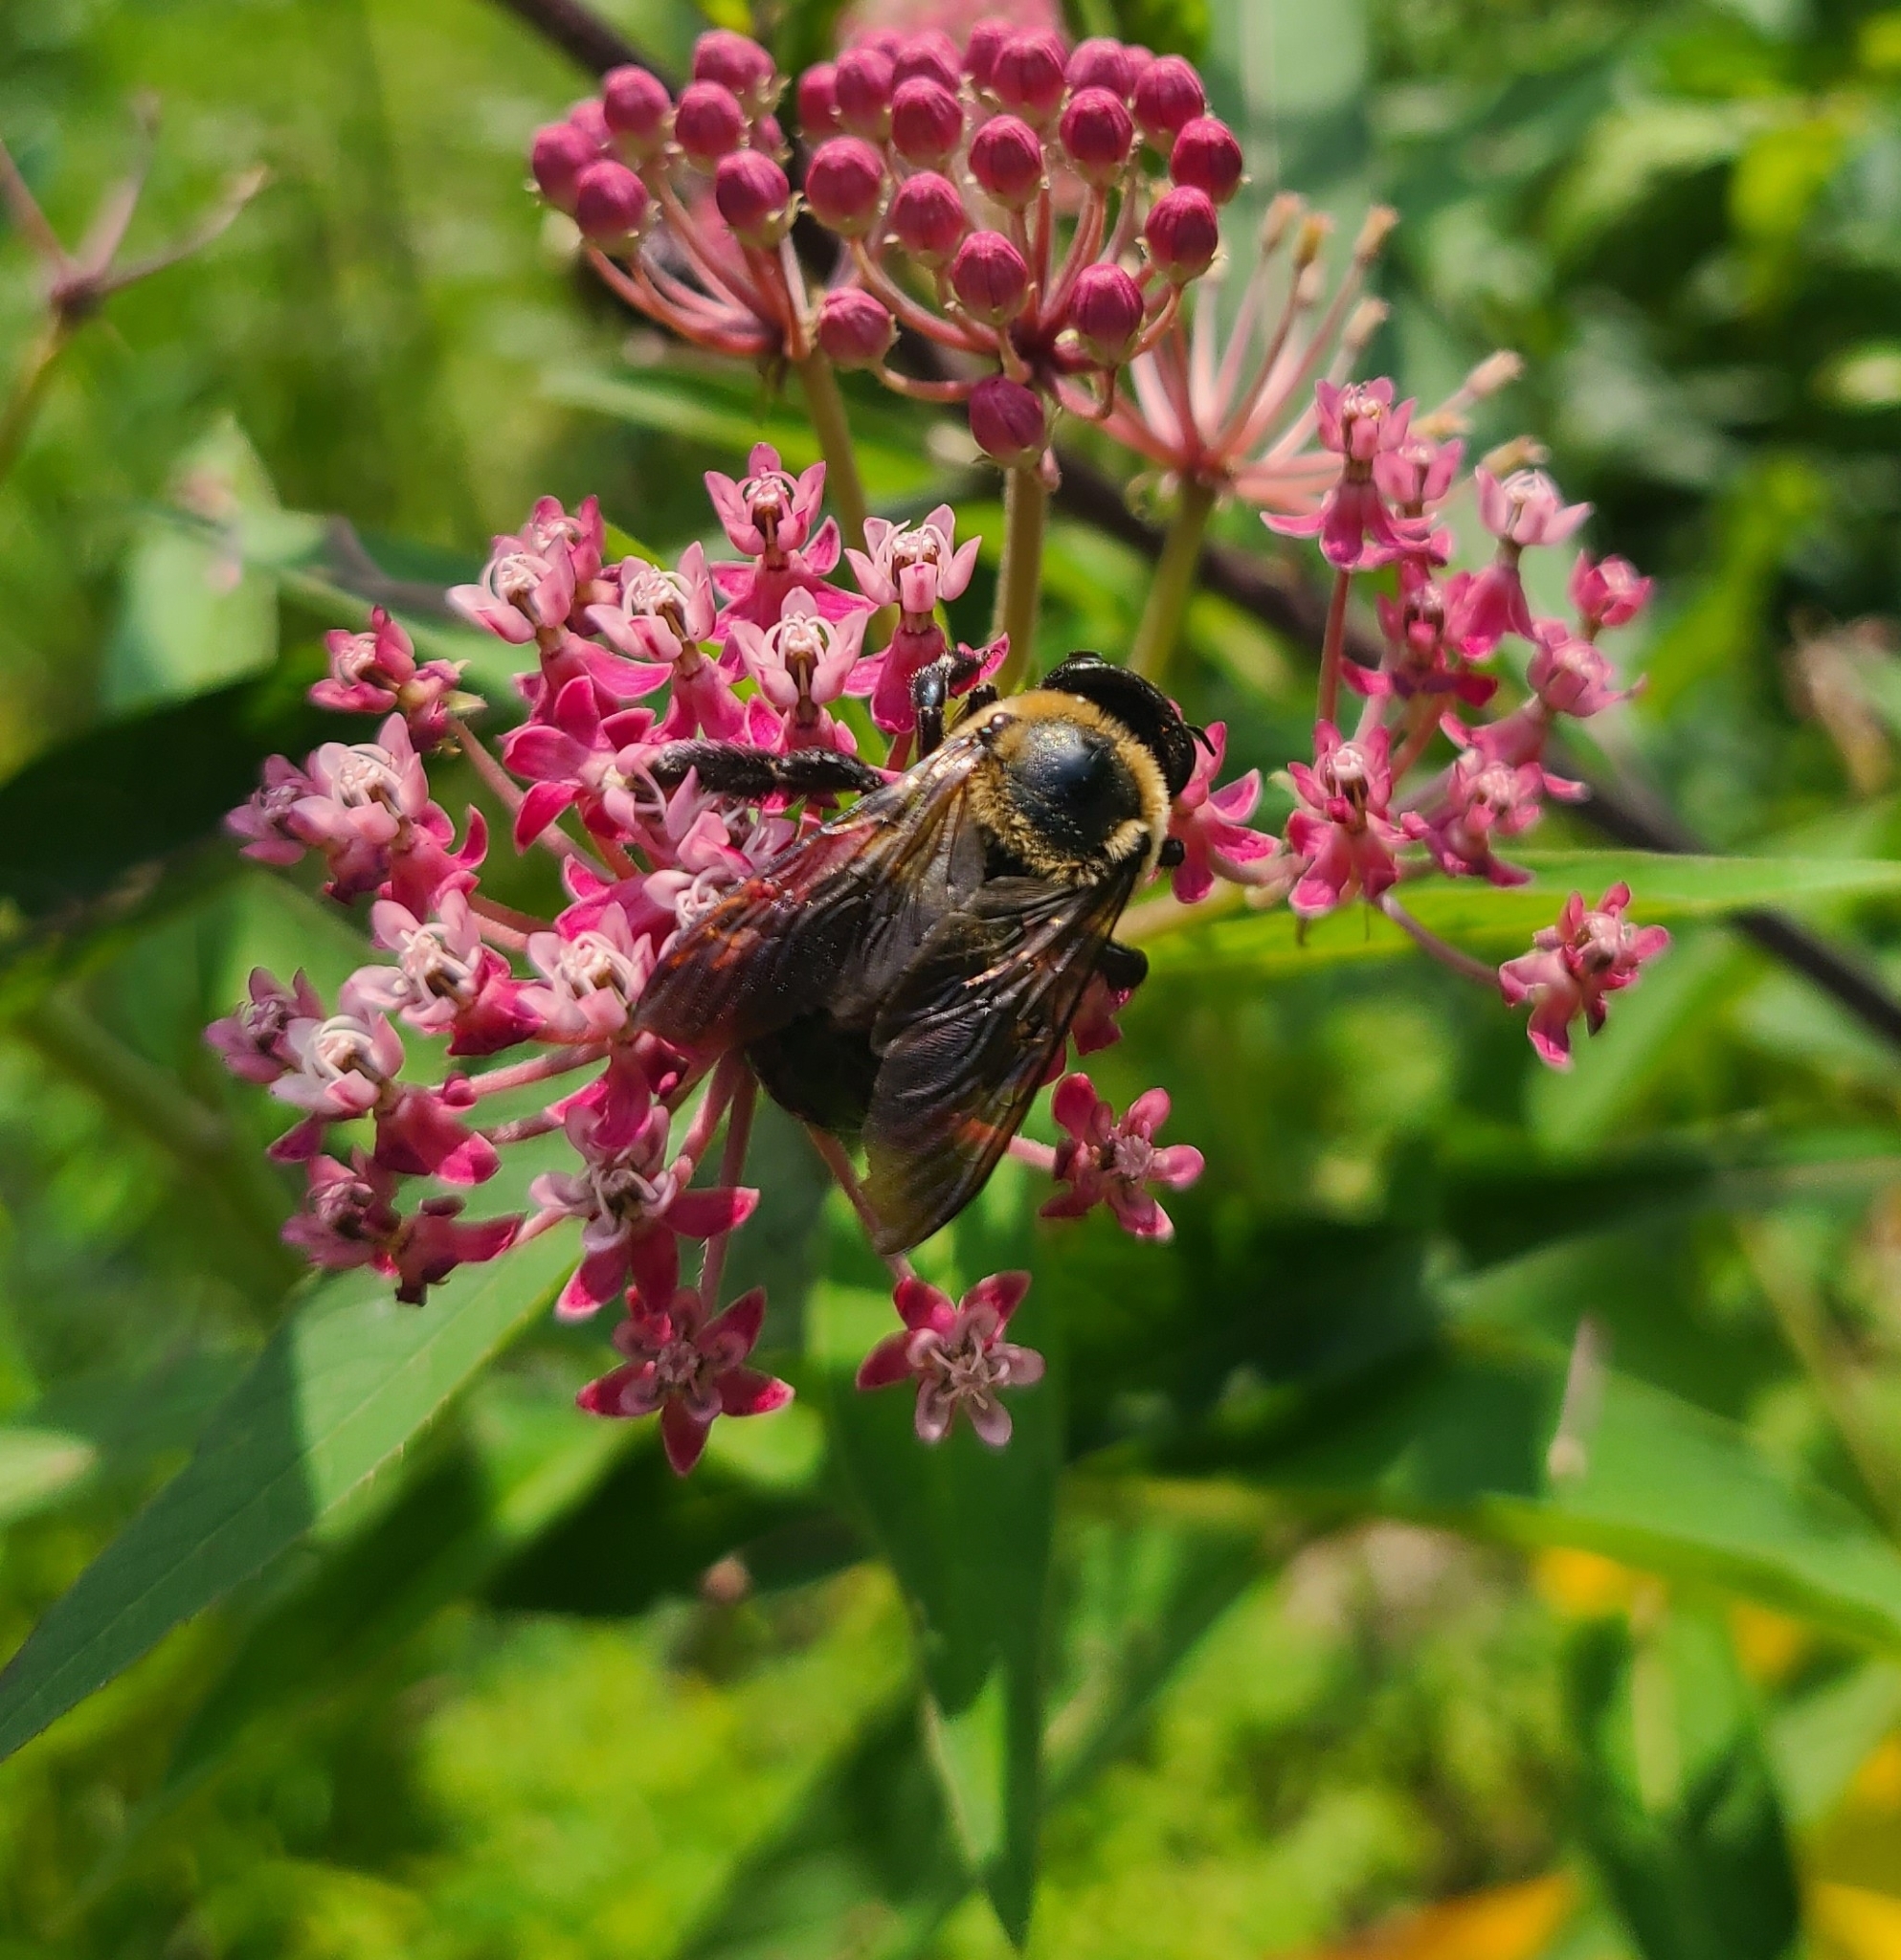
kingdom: Animalia
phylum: Arthropoda
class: Insecta
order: Hymenoptera
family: Apidae
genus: Xylocopa
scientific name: Xylocopa virginica
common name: Carpenter bee
